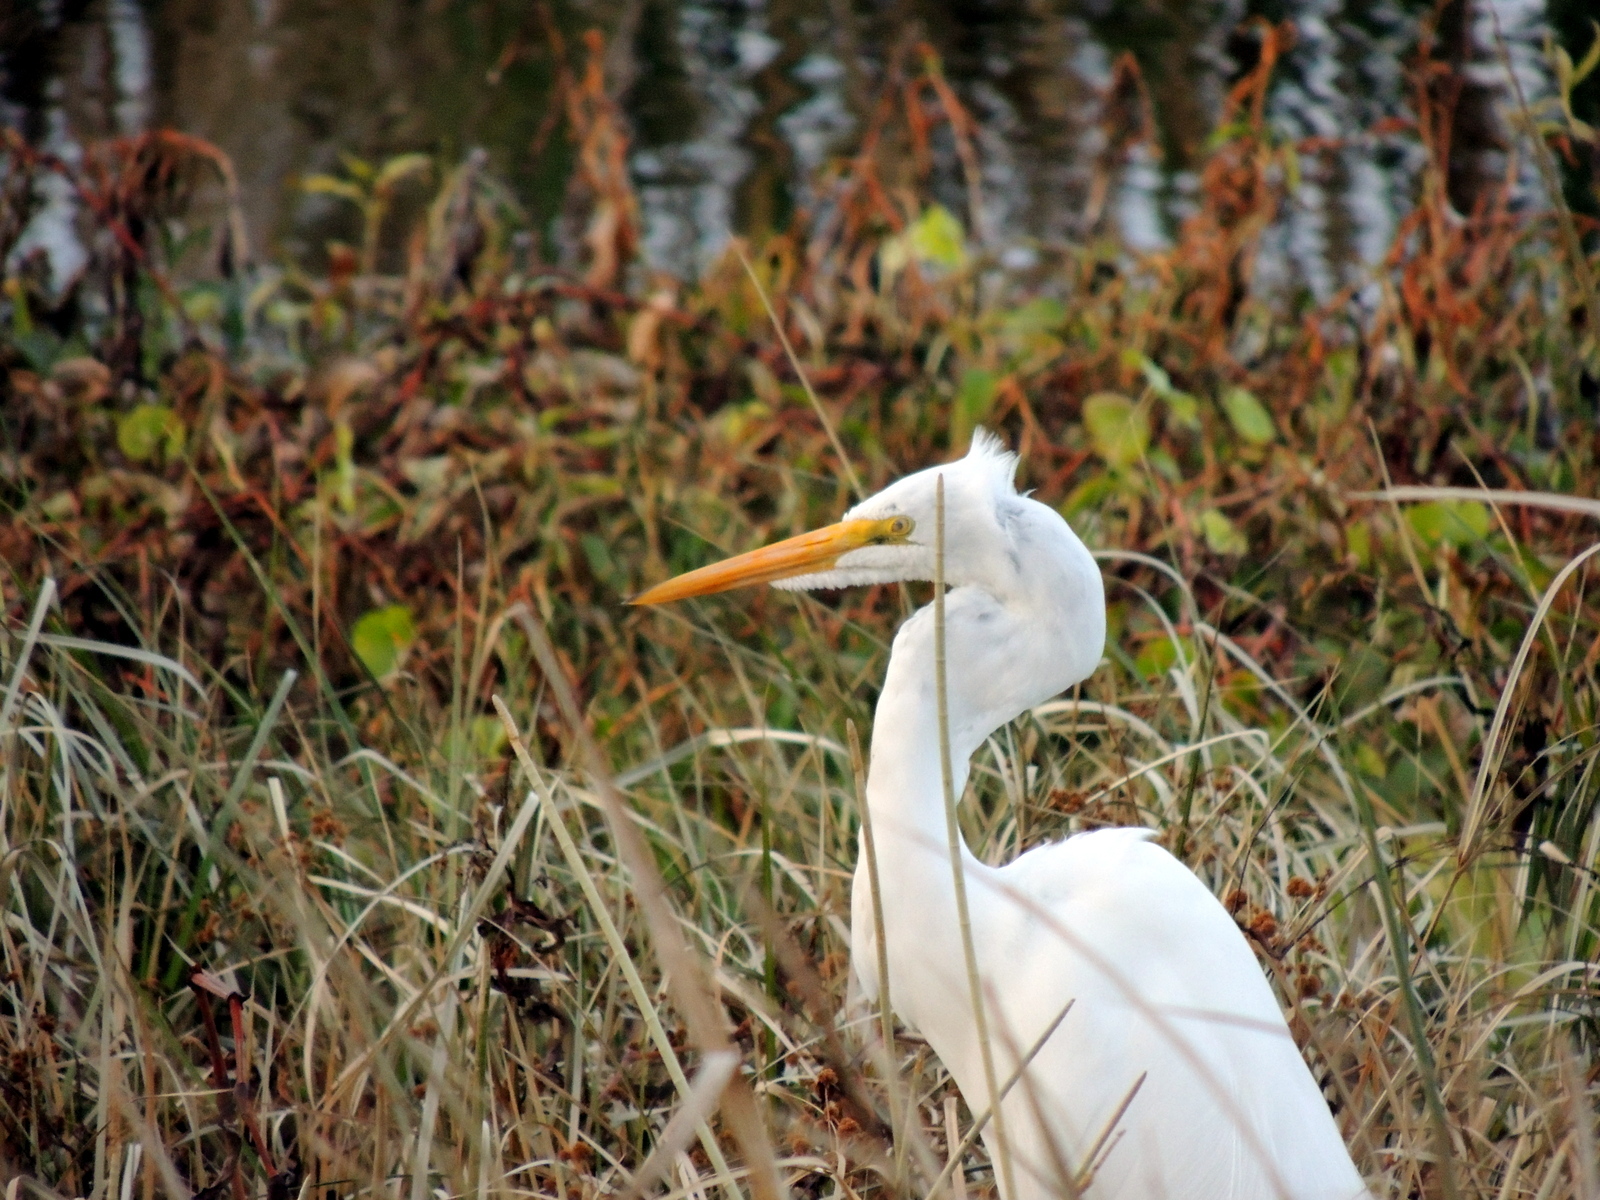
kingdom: Animalia
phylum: Chordata
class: Aves
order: Pelecaniformes
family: Ardeidae
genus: Ardea
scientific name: Ardea alba
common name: Great egret
